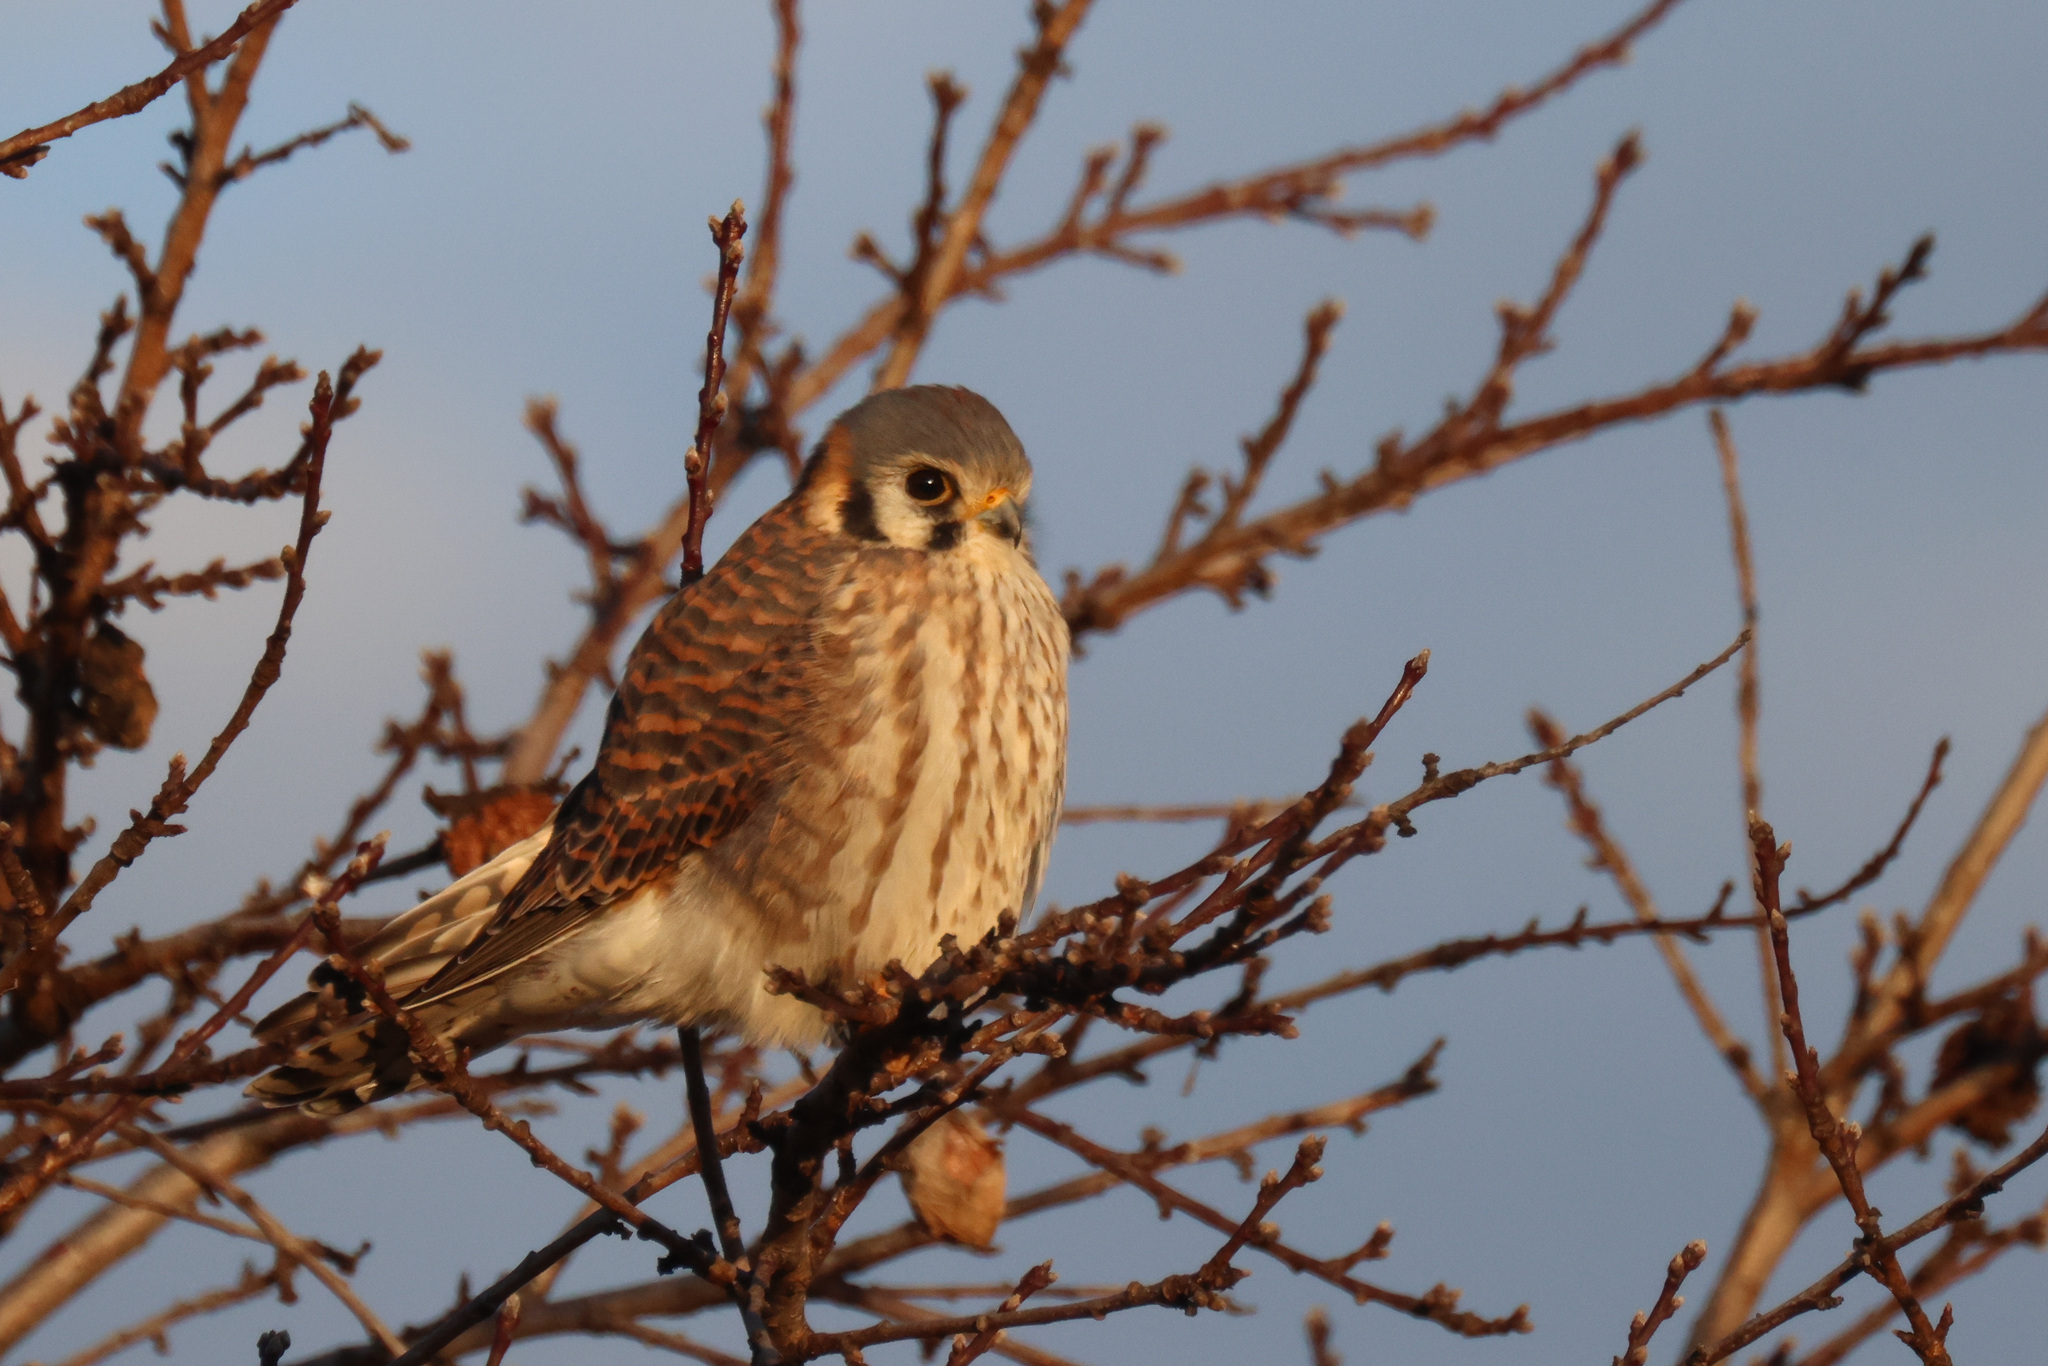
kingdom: Animalia
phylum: Chordata
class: Aves
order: Passeriformes
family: Passerellidae
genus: Melospiza
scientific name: Melospiza melodia
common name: Song sparrow
